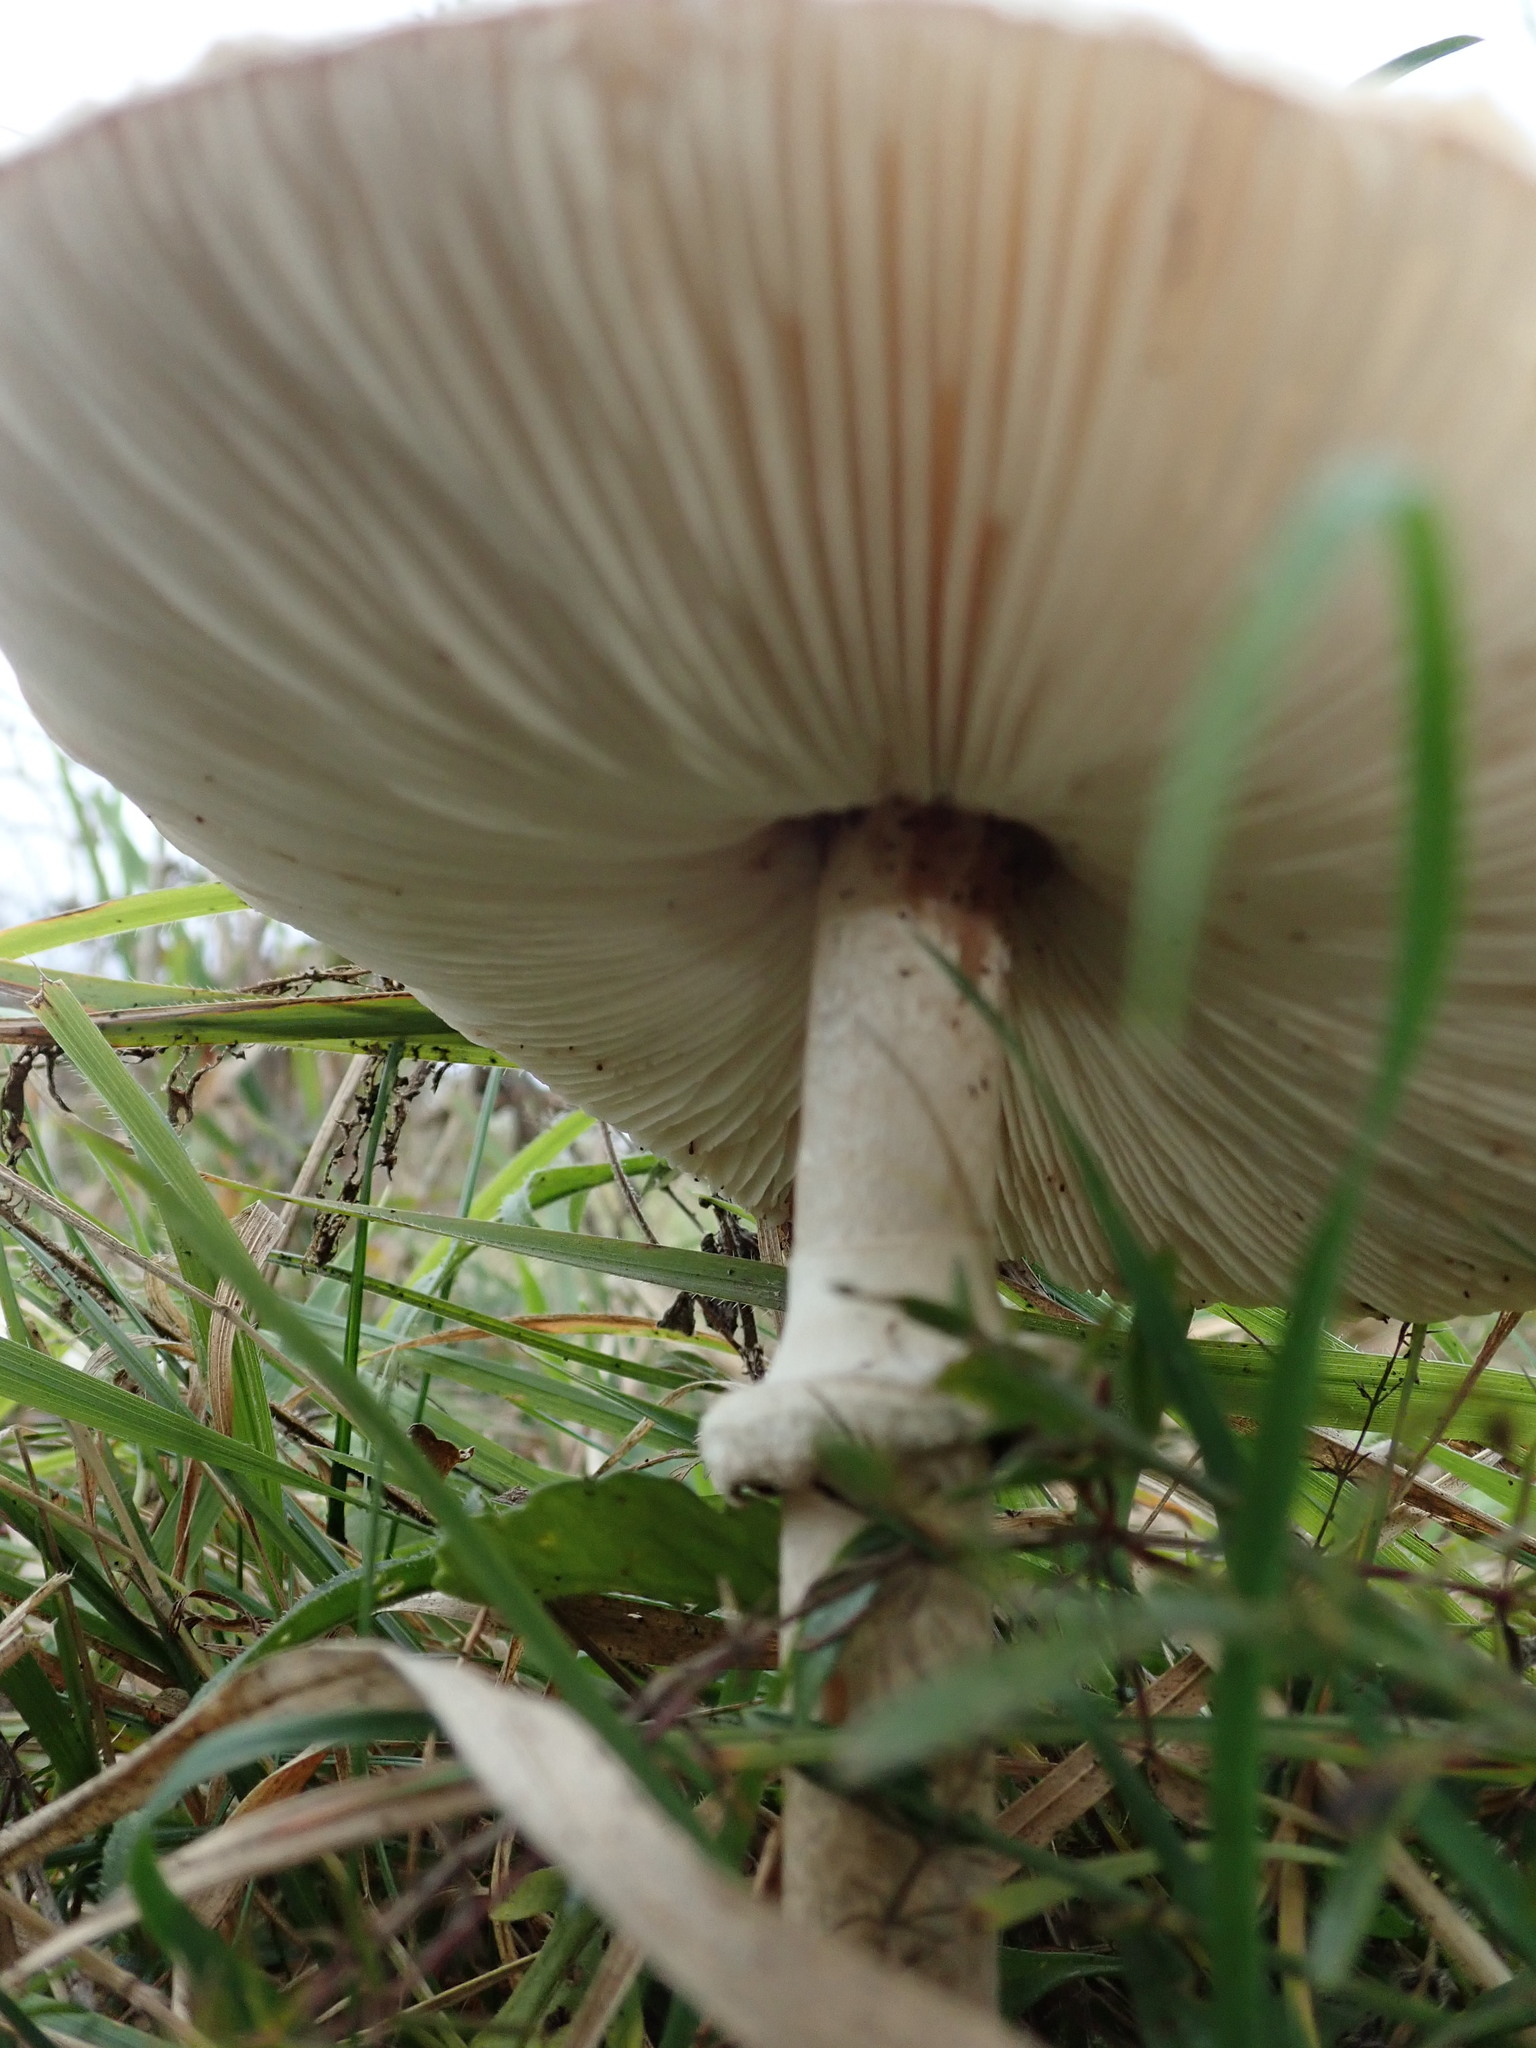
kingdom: Fungi
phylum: Basidiomycota
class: Agaricomycetes
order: Agaricales
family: Agaricaceae
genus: Macrolepiota
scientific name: Macrolepiota mastoidea
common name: Slender parasol
